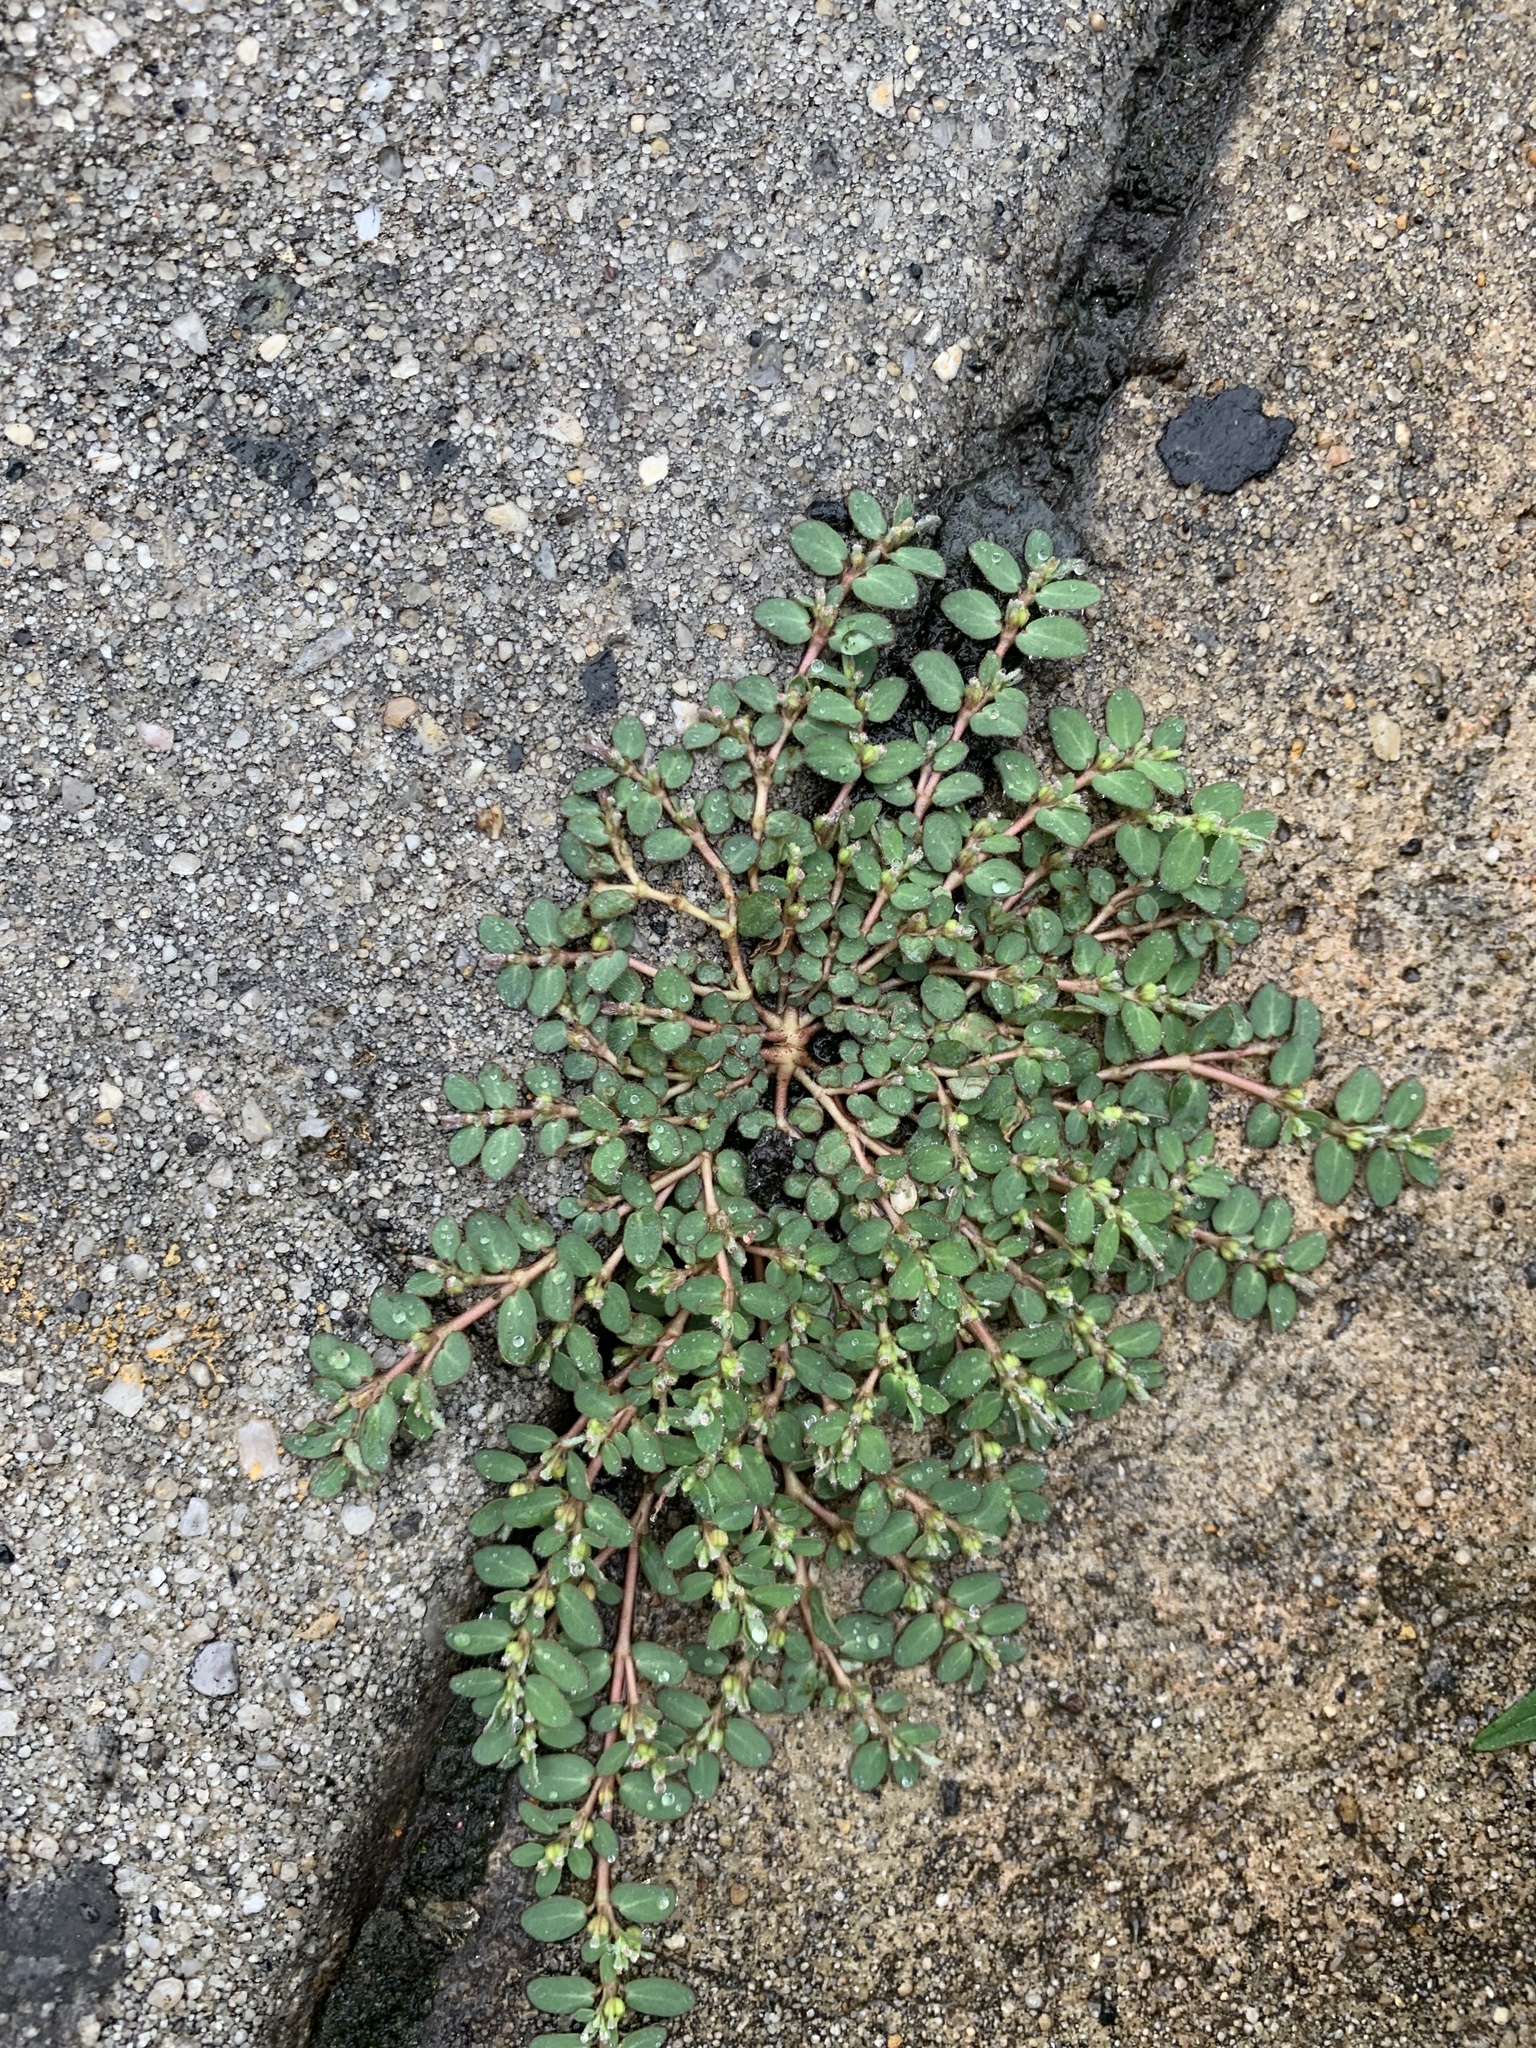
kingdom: Plantae
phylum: Tracheophyta
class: Magnoliopsida
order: Malpighiales
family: Euphorbiaceae
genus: Euphorbia
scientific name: Euphorbia prostrata
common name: Prostrate sandmat
